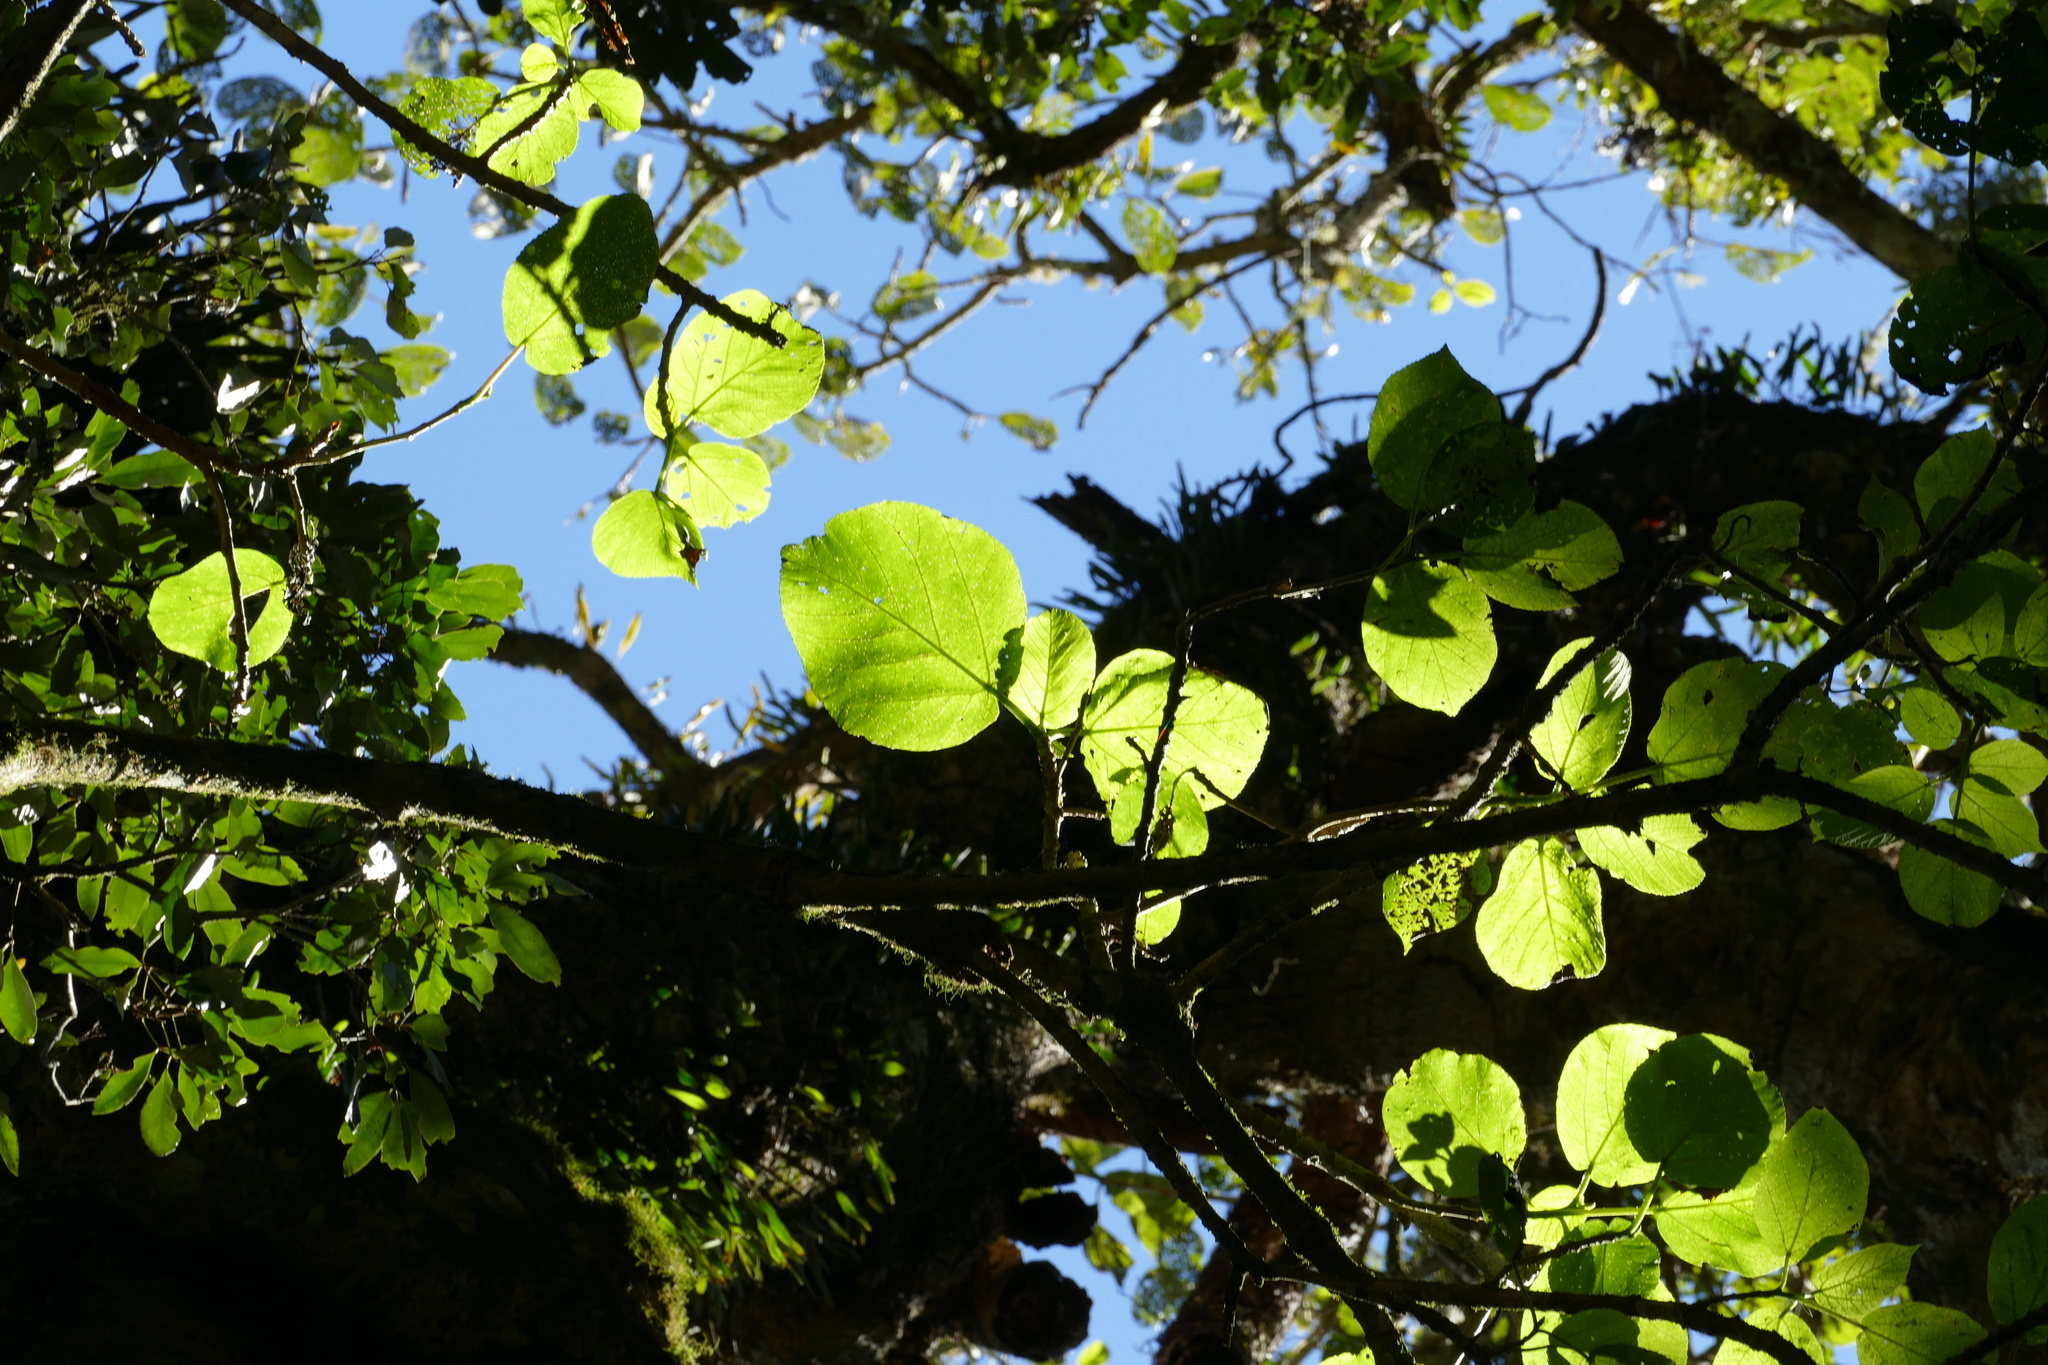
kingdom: Plantae
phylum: Tracheophyta
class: Magnoliopsida
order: Rosales
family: Urticaceae
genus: Dendrocnide
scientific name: Dendrocnide excelsa
